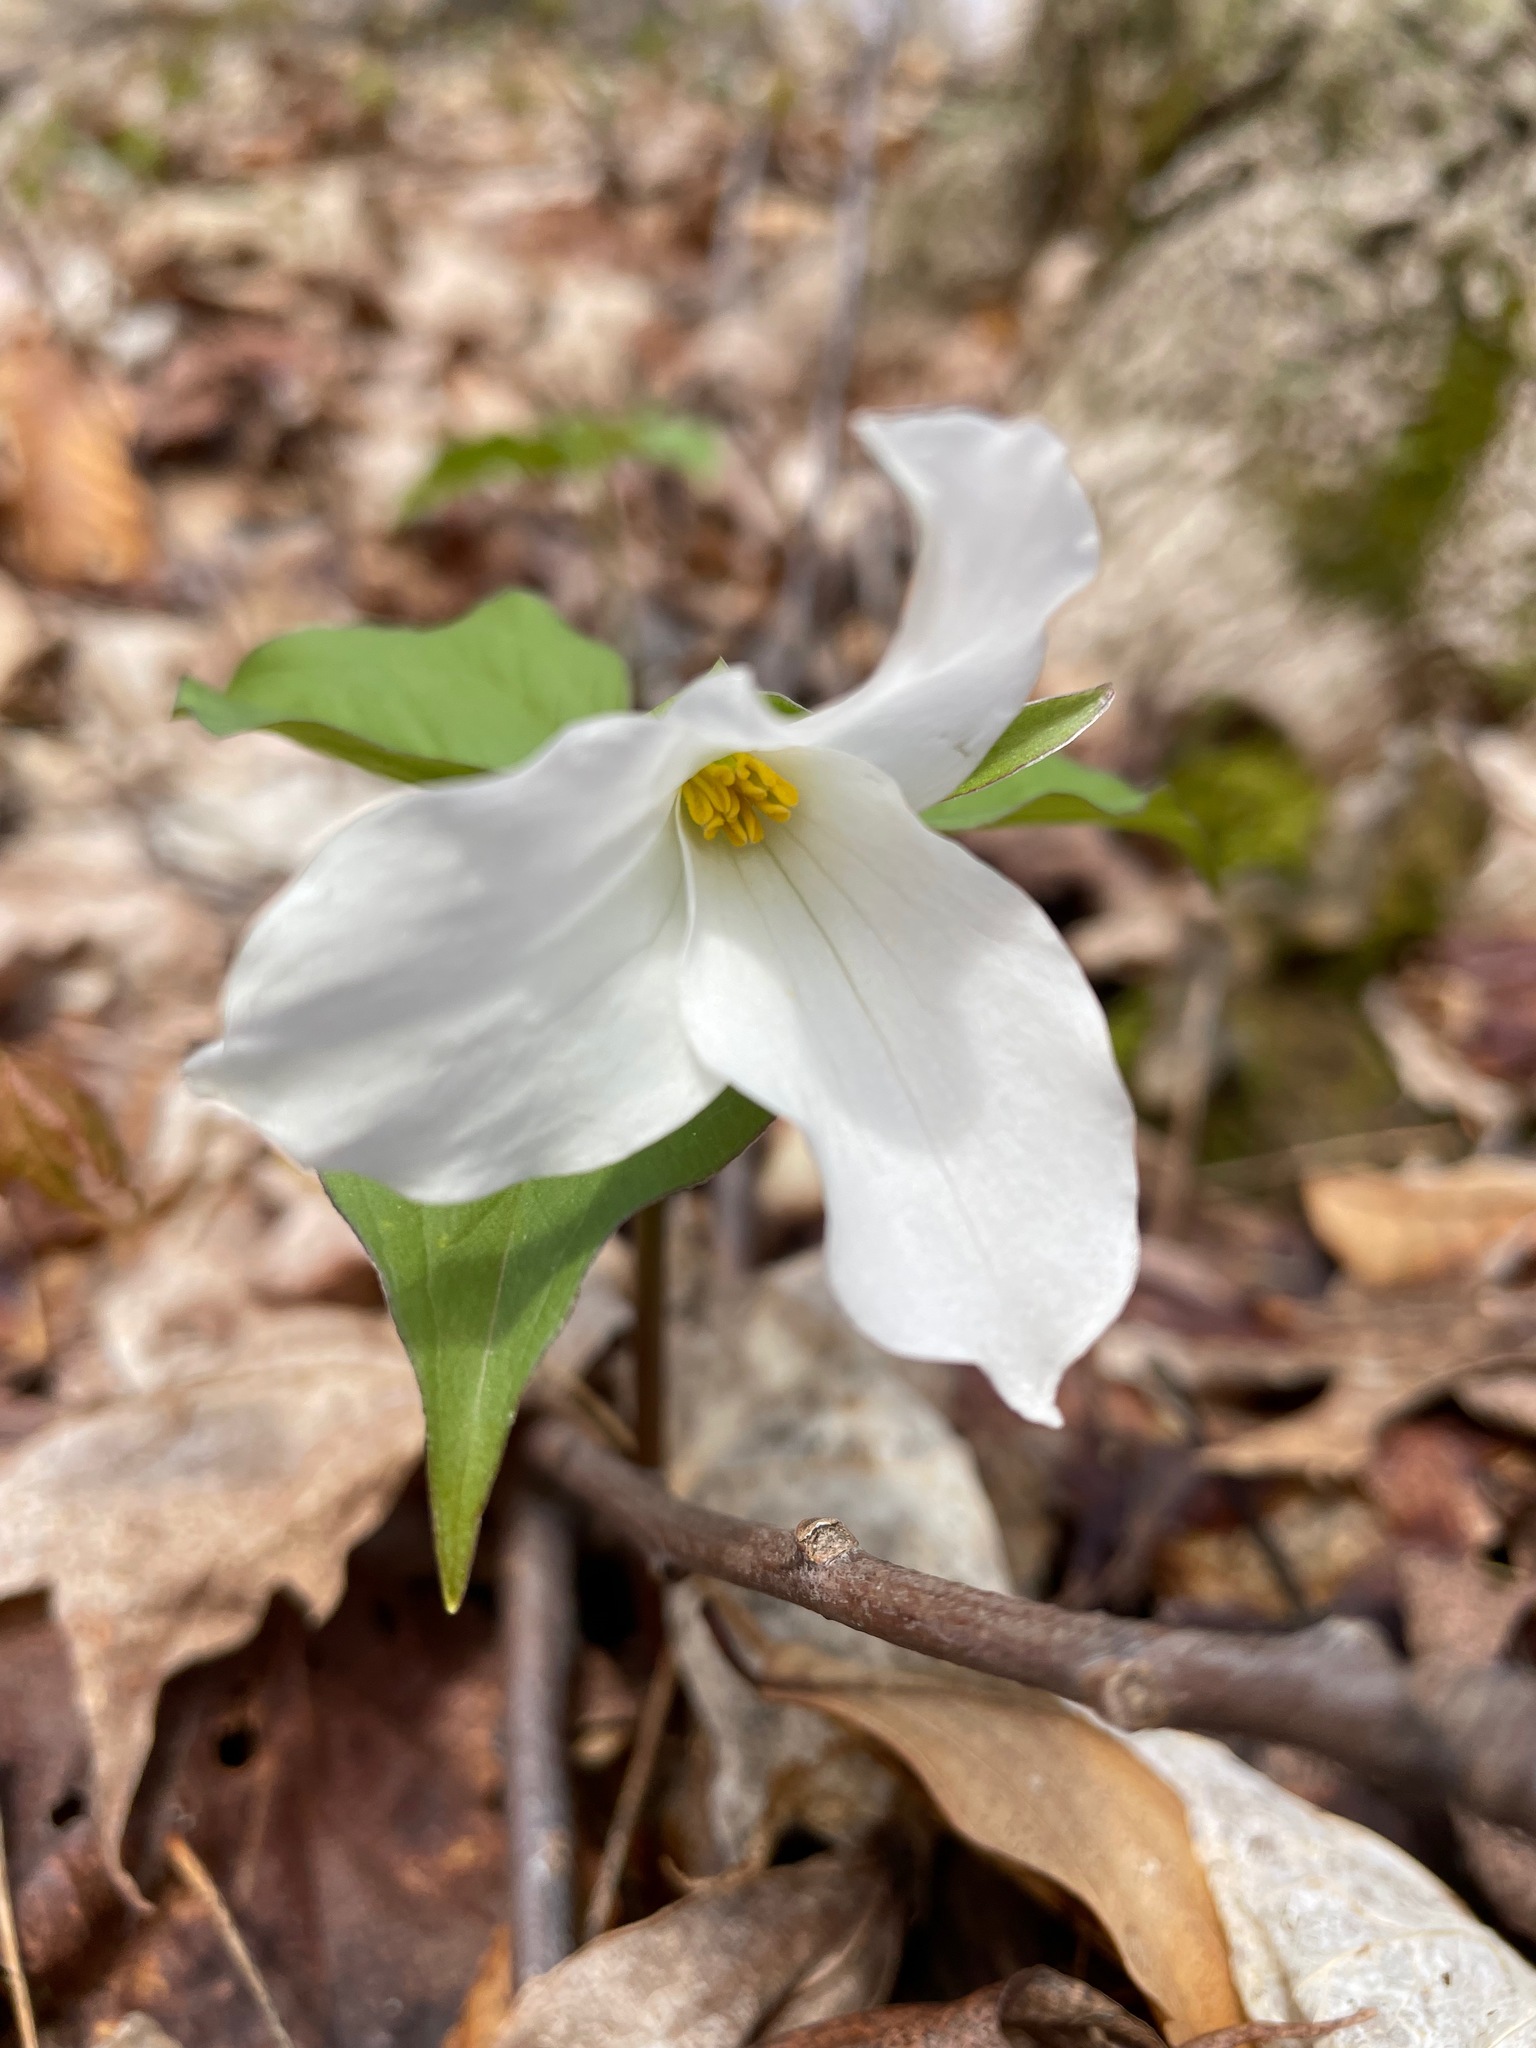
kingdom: Plantae
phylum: Tracheophyta
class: Liliopsida
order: Liliales
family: Melanthiaceae
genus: Trillium
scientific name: Trillium grandiflorum
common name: Great white trillium
